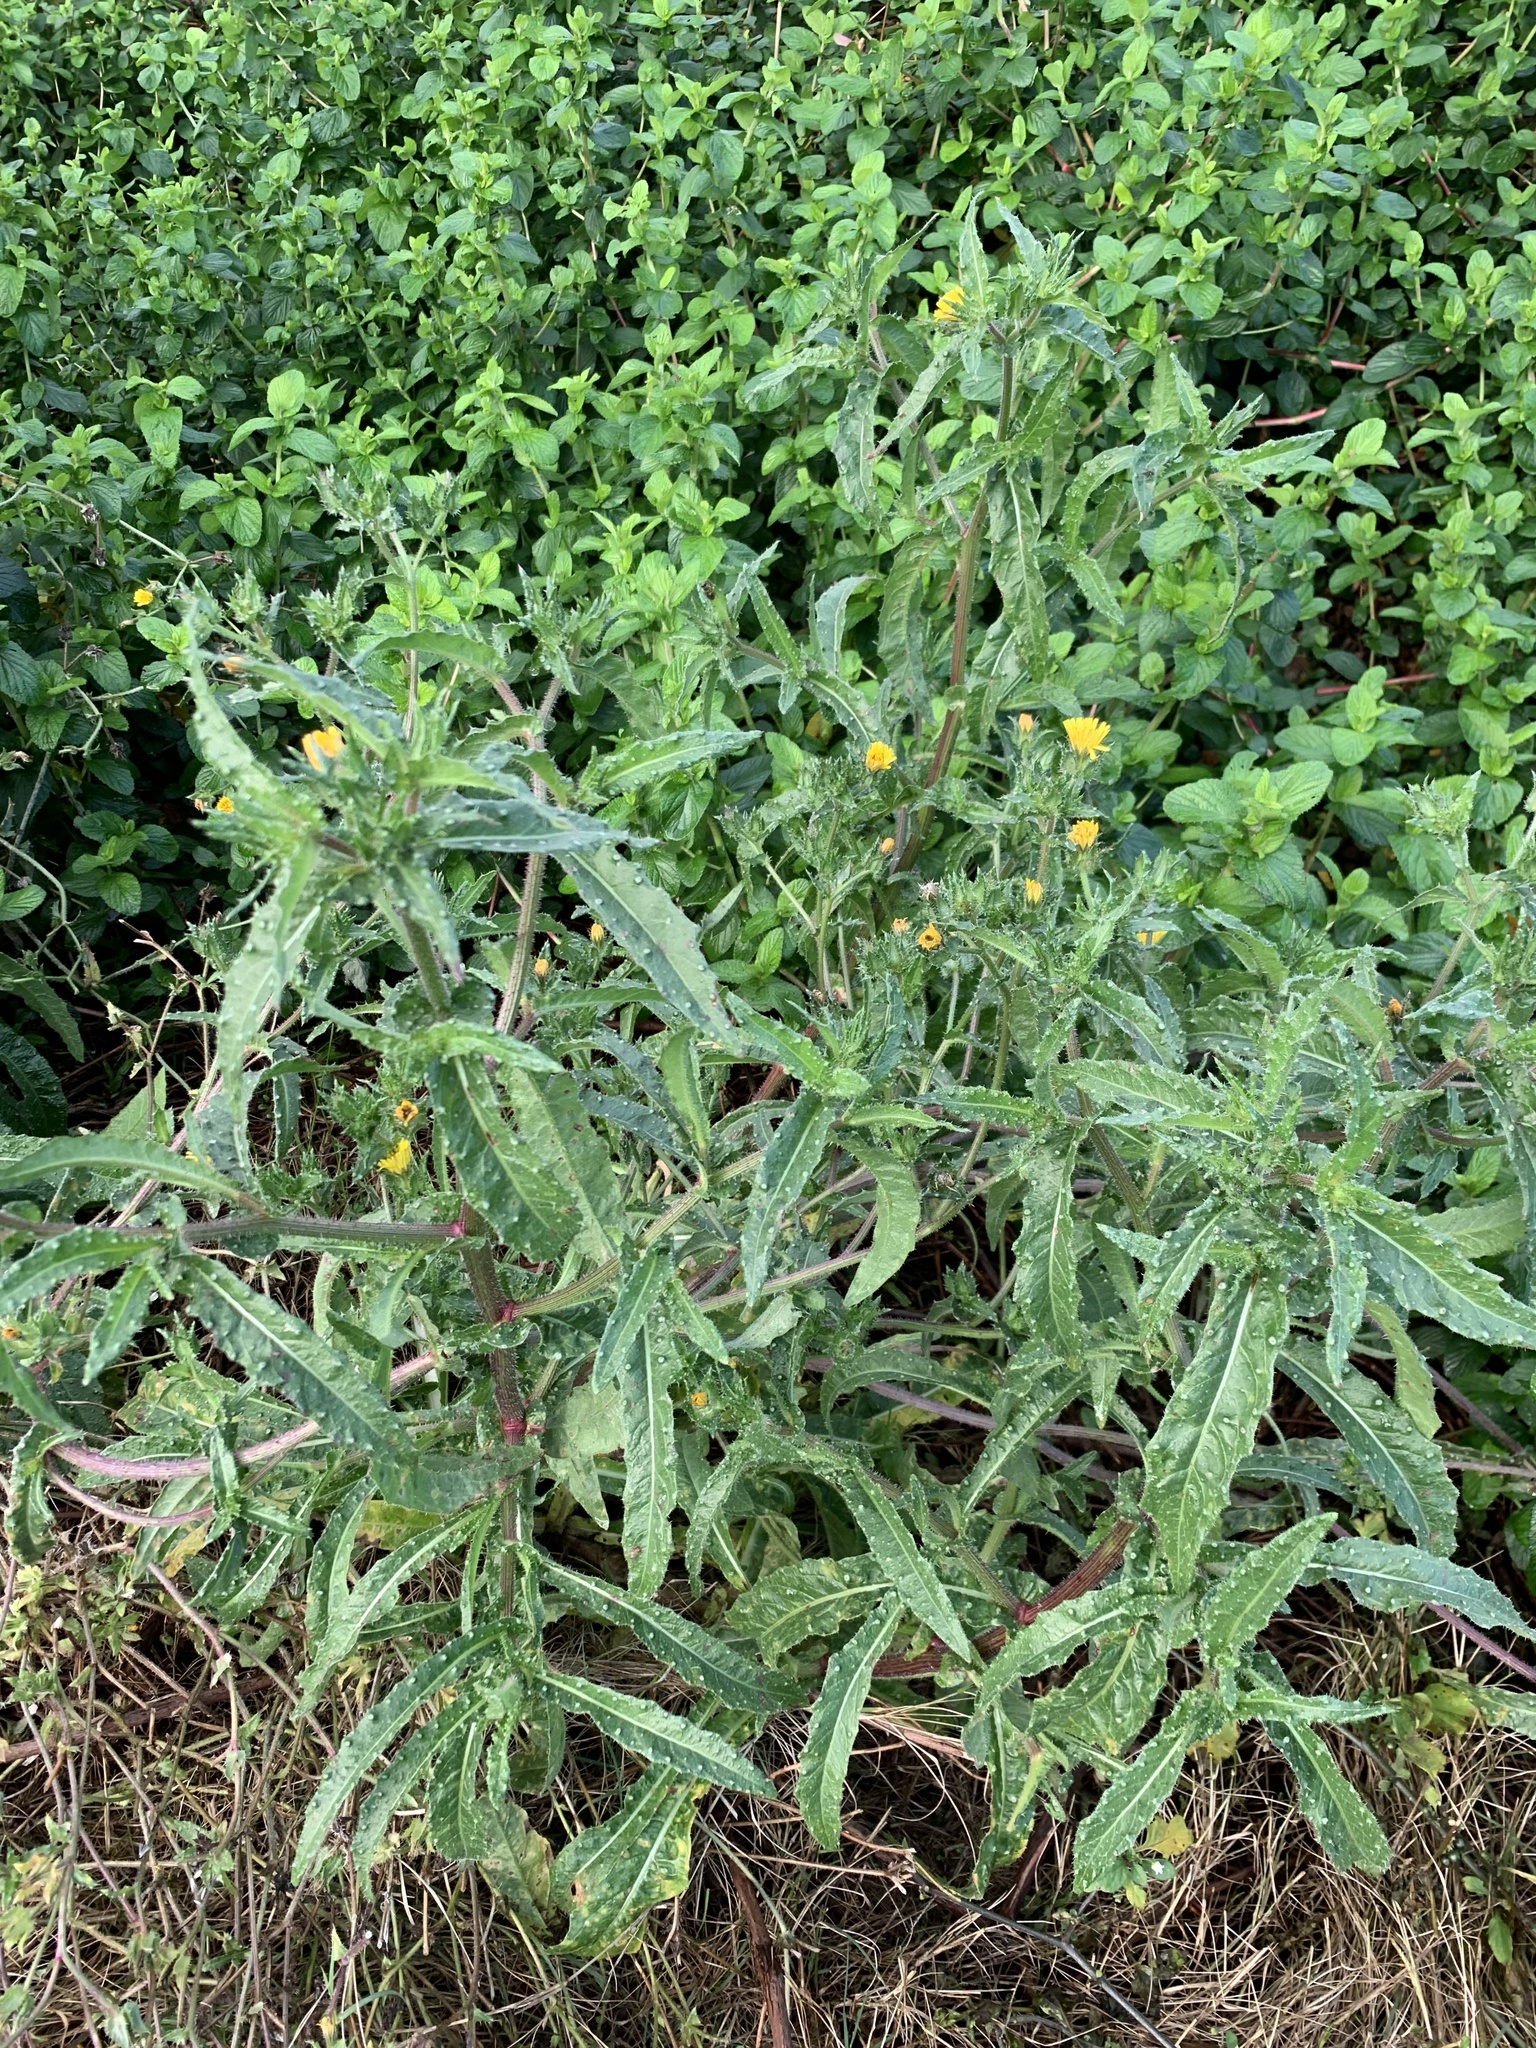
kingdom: Plantae
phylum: Tracheophyta
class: Magnoliopsida
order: Asterales
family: Asteraceae
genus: Helminthotheca
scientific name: Helminthotheca echioides
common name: Ox-tongue
